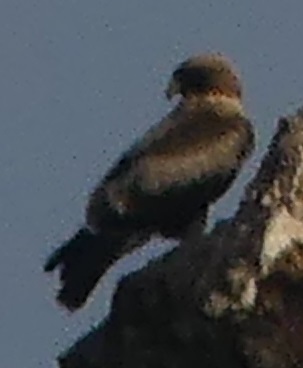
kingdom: Animalia
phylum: Chordata
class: Aves
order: Accipitriformes
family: Accipitridae
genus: Hieraaetus
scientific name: Hieraaetus pennatus
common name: Booted eagle
